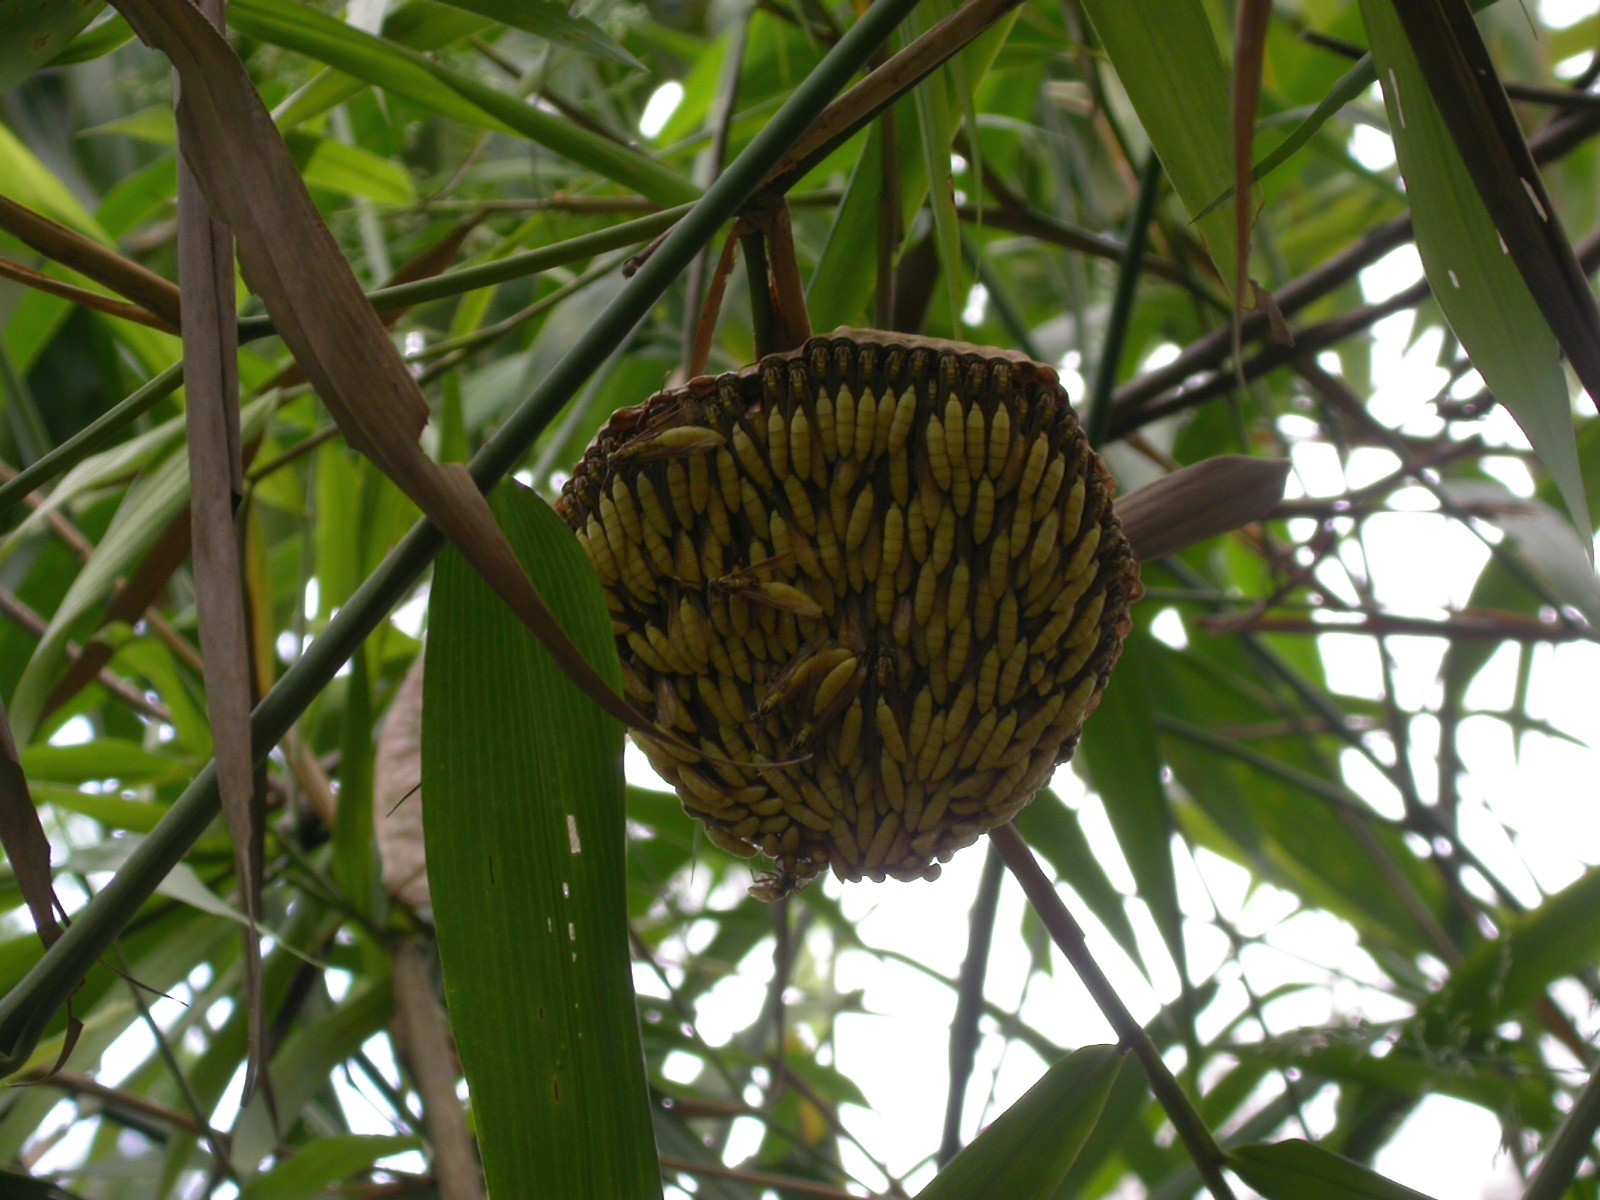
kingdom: Animalia
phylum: Arthropoda
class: Insecta
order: Hymenoptera
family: Vespidae
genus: Apoica
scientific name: Apoica flavissima
